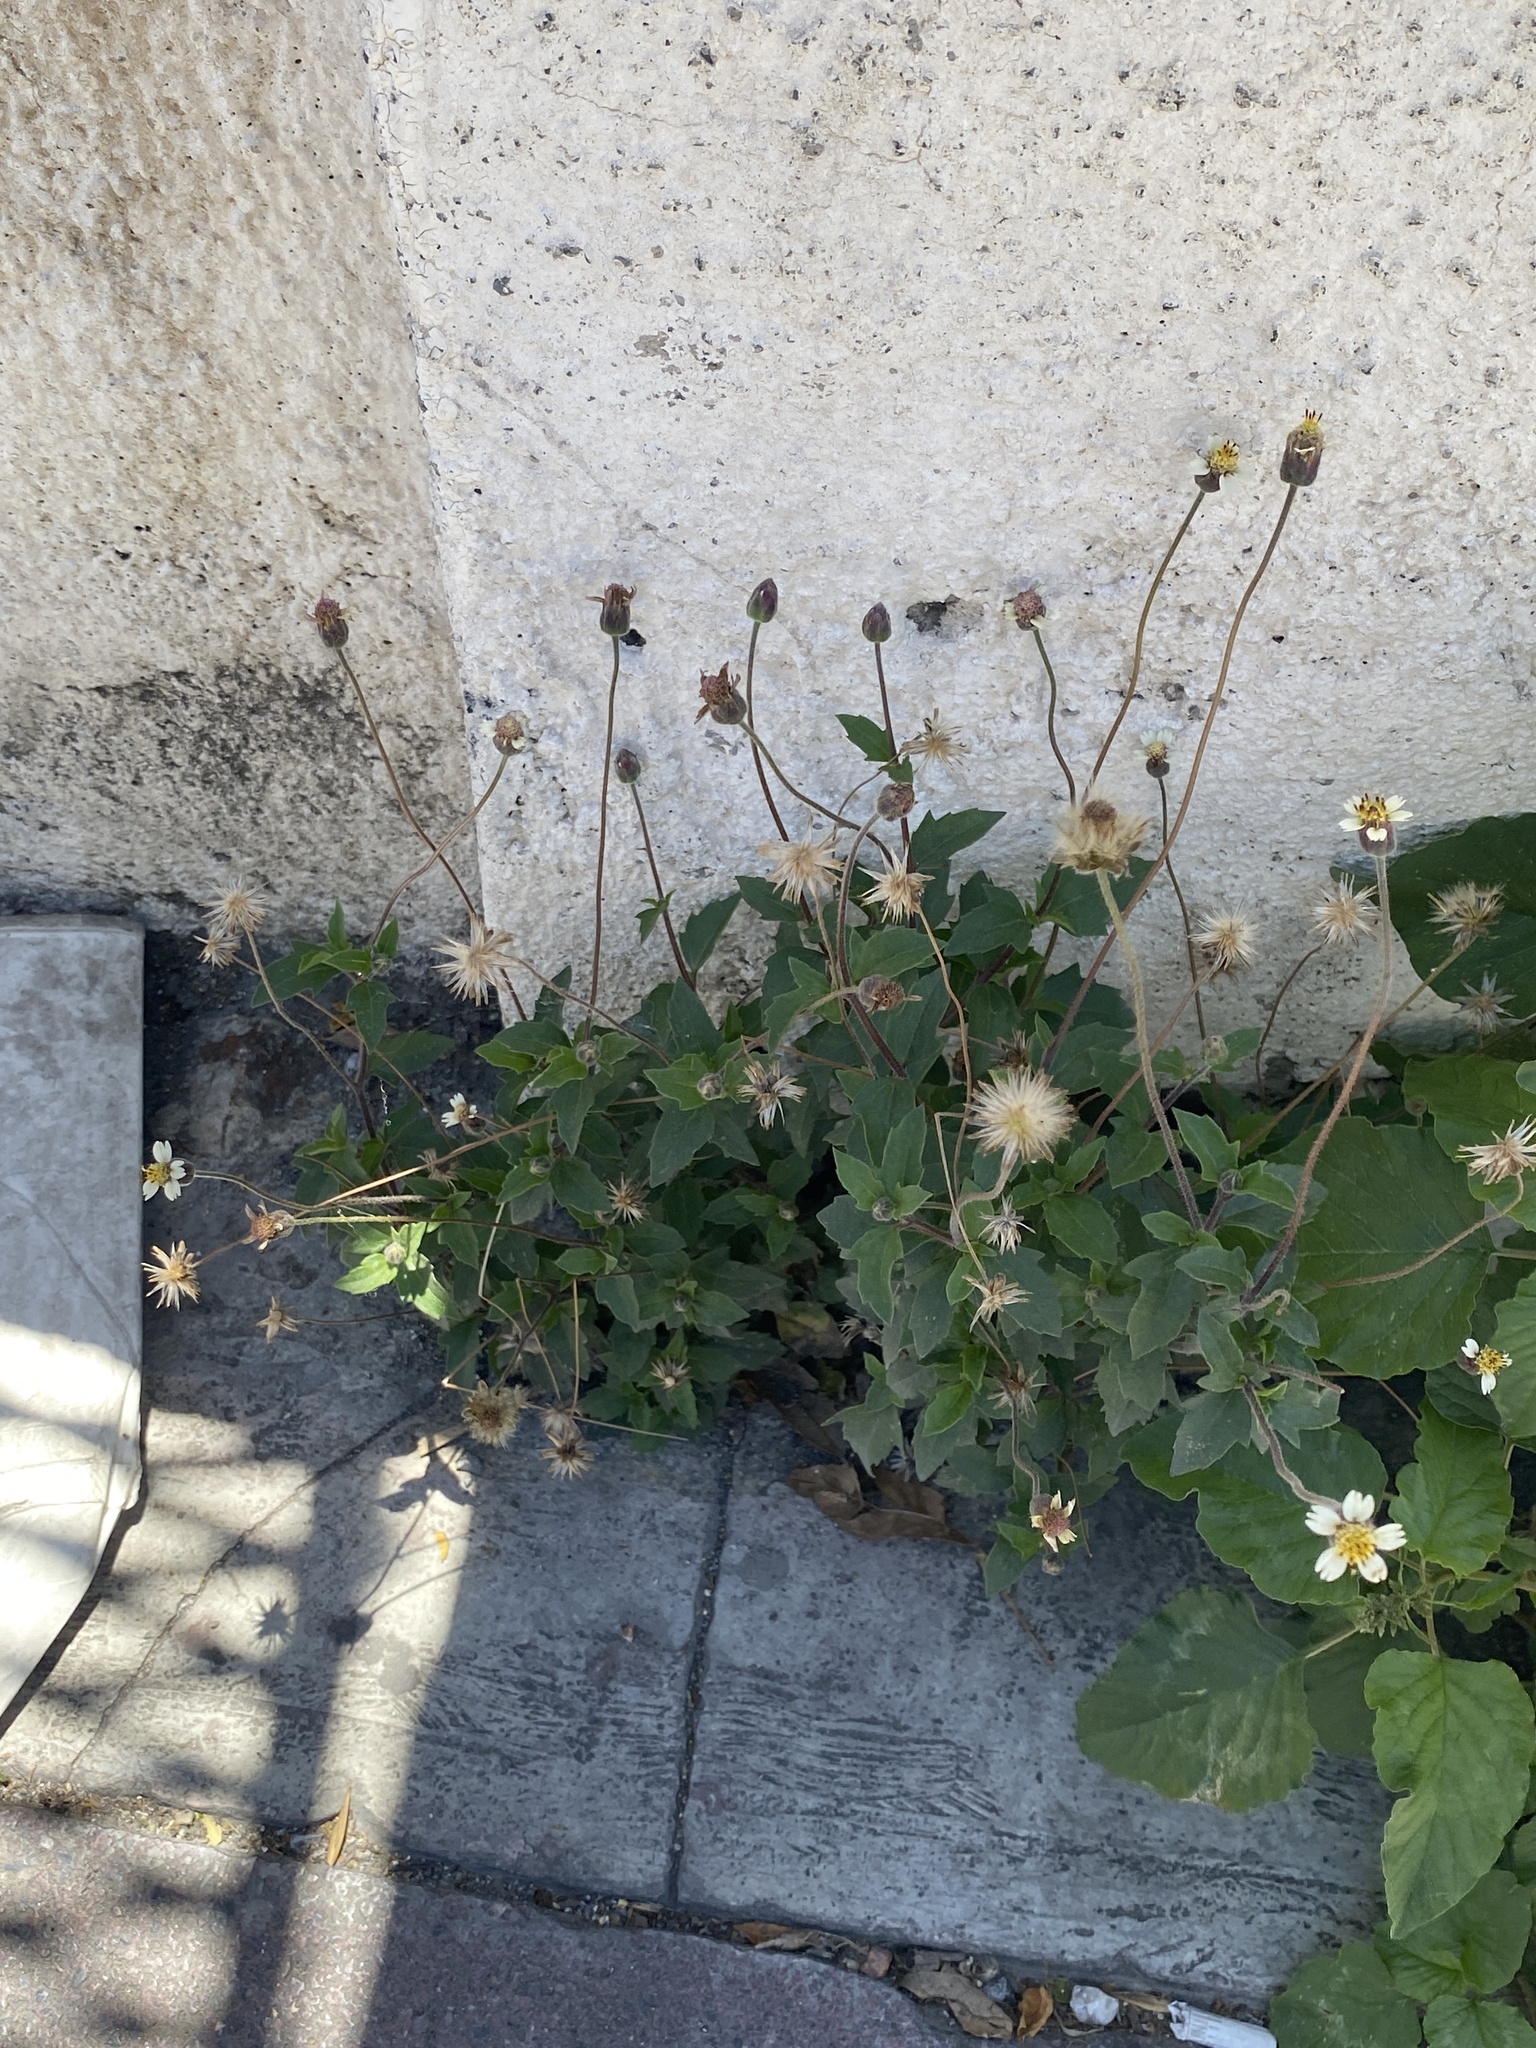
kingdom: Plantae
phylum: Tracheophyta
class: Magnoliopsida
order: Asterales
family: Asteraceae
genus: Tridax
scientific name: Tridax procumbens
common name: Coatbuttons
